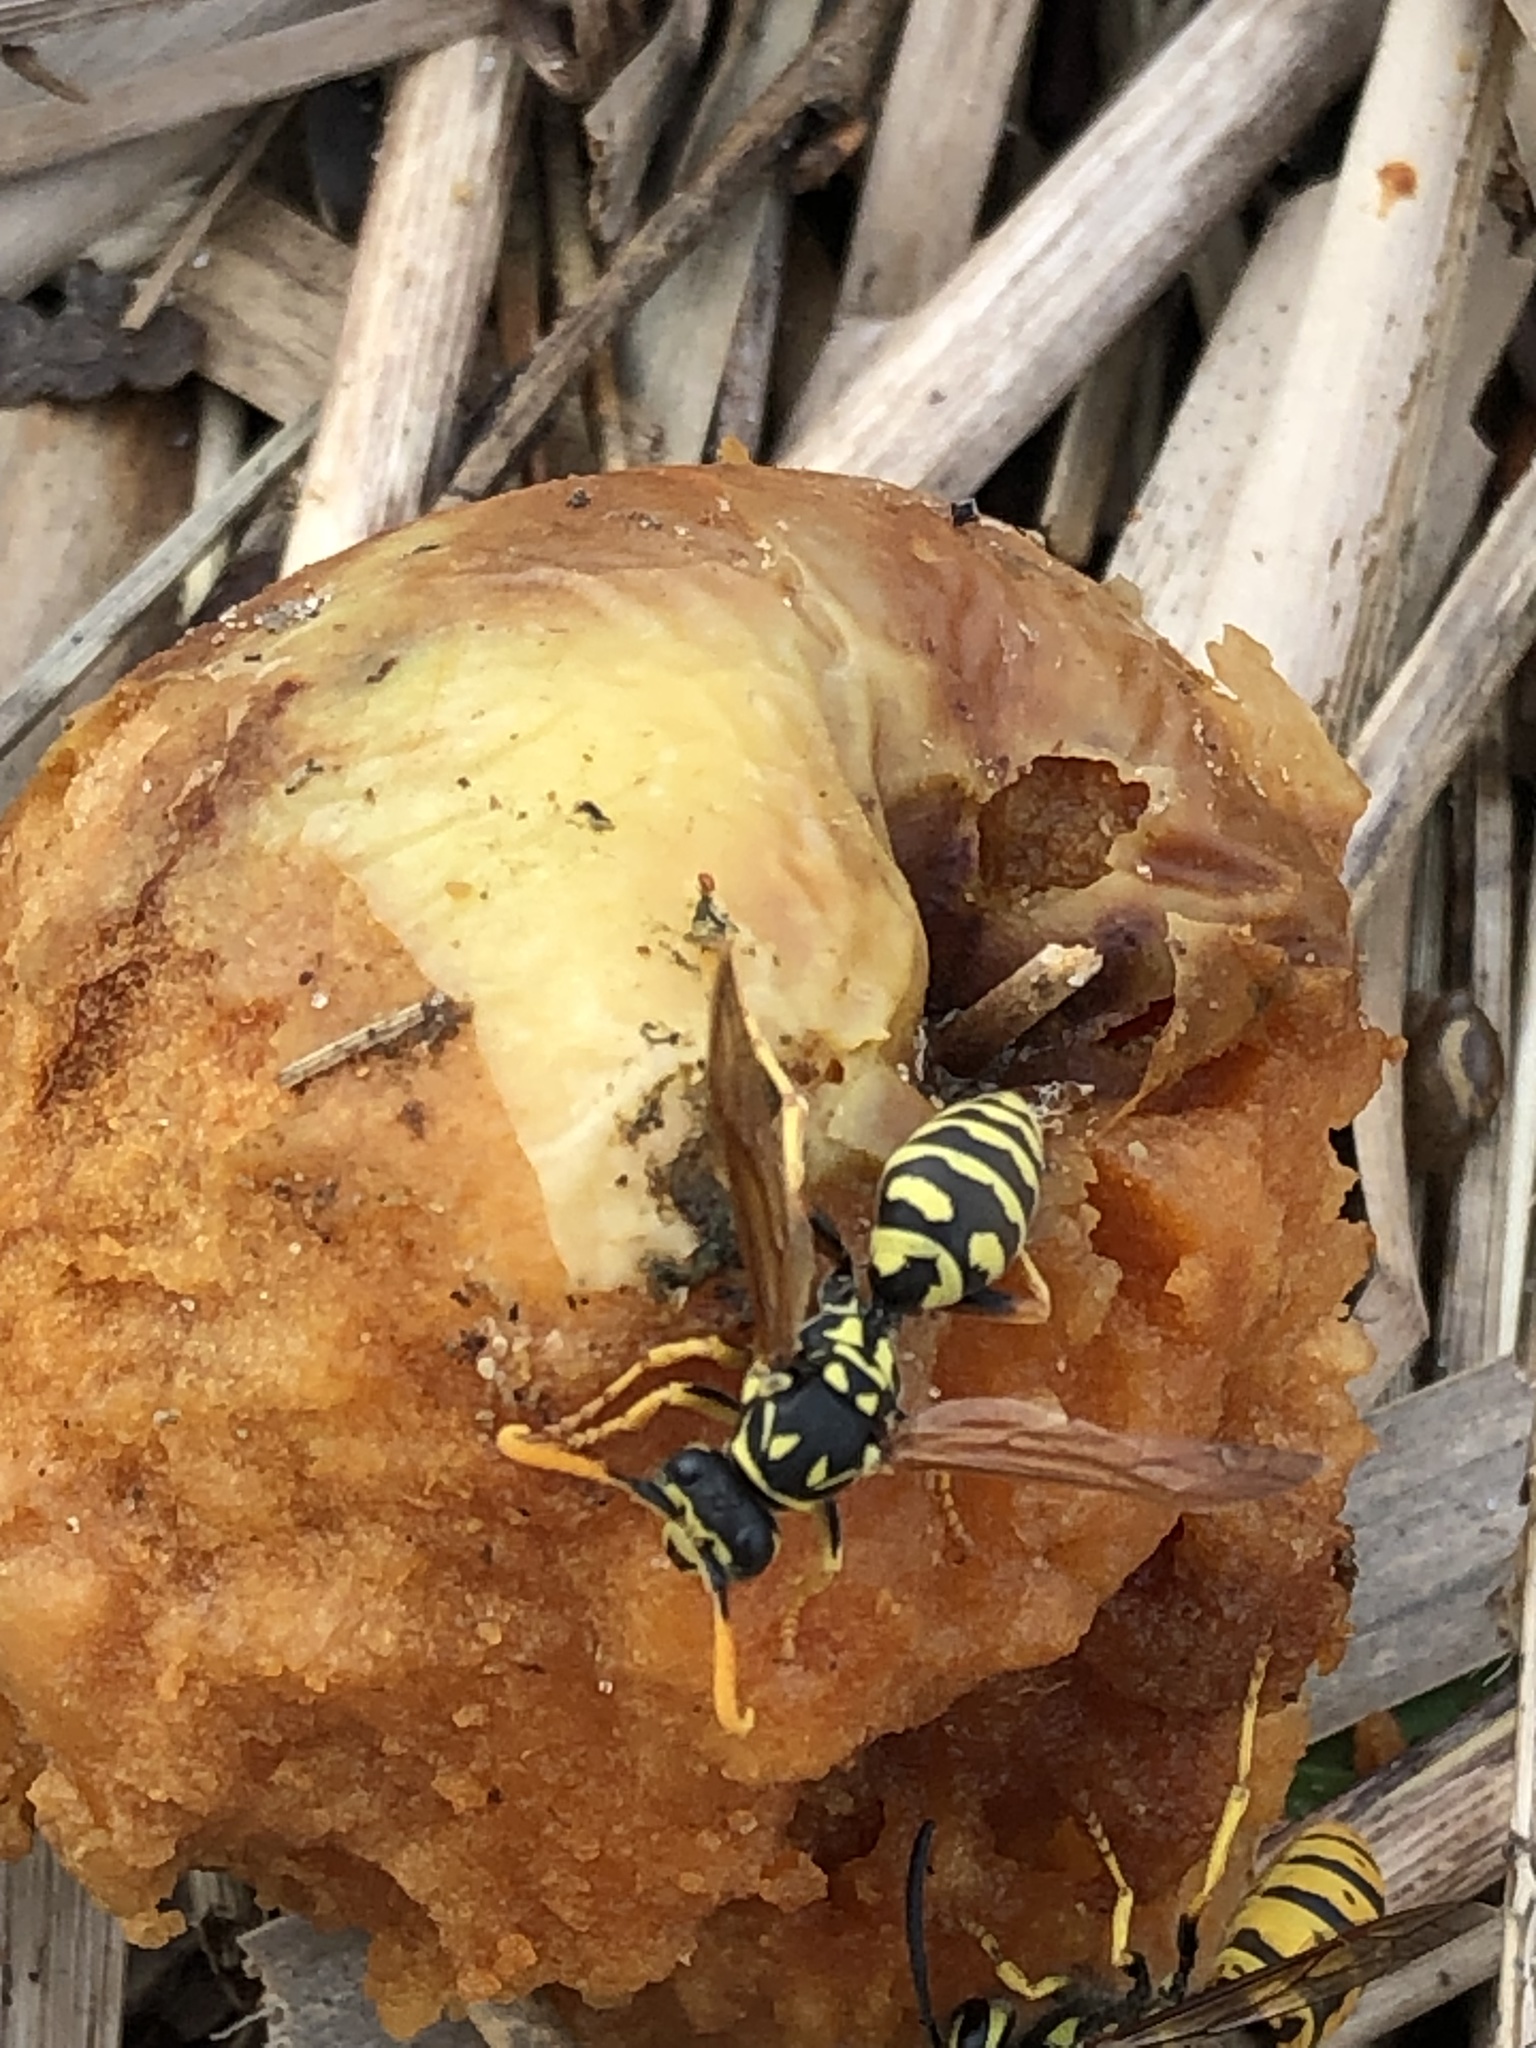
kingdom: Animalia
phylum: Arthropoda
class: Insecta
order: Hymenoptera
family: Eumenidae
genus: Polistes
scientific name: Polistes dominula
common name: Paper wasp
